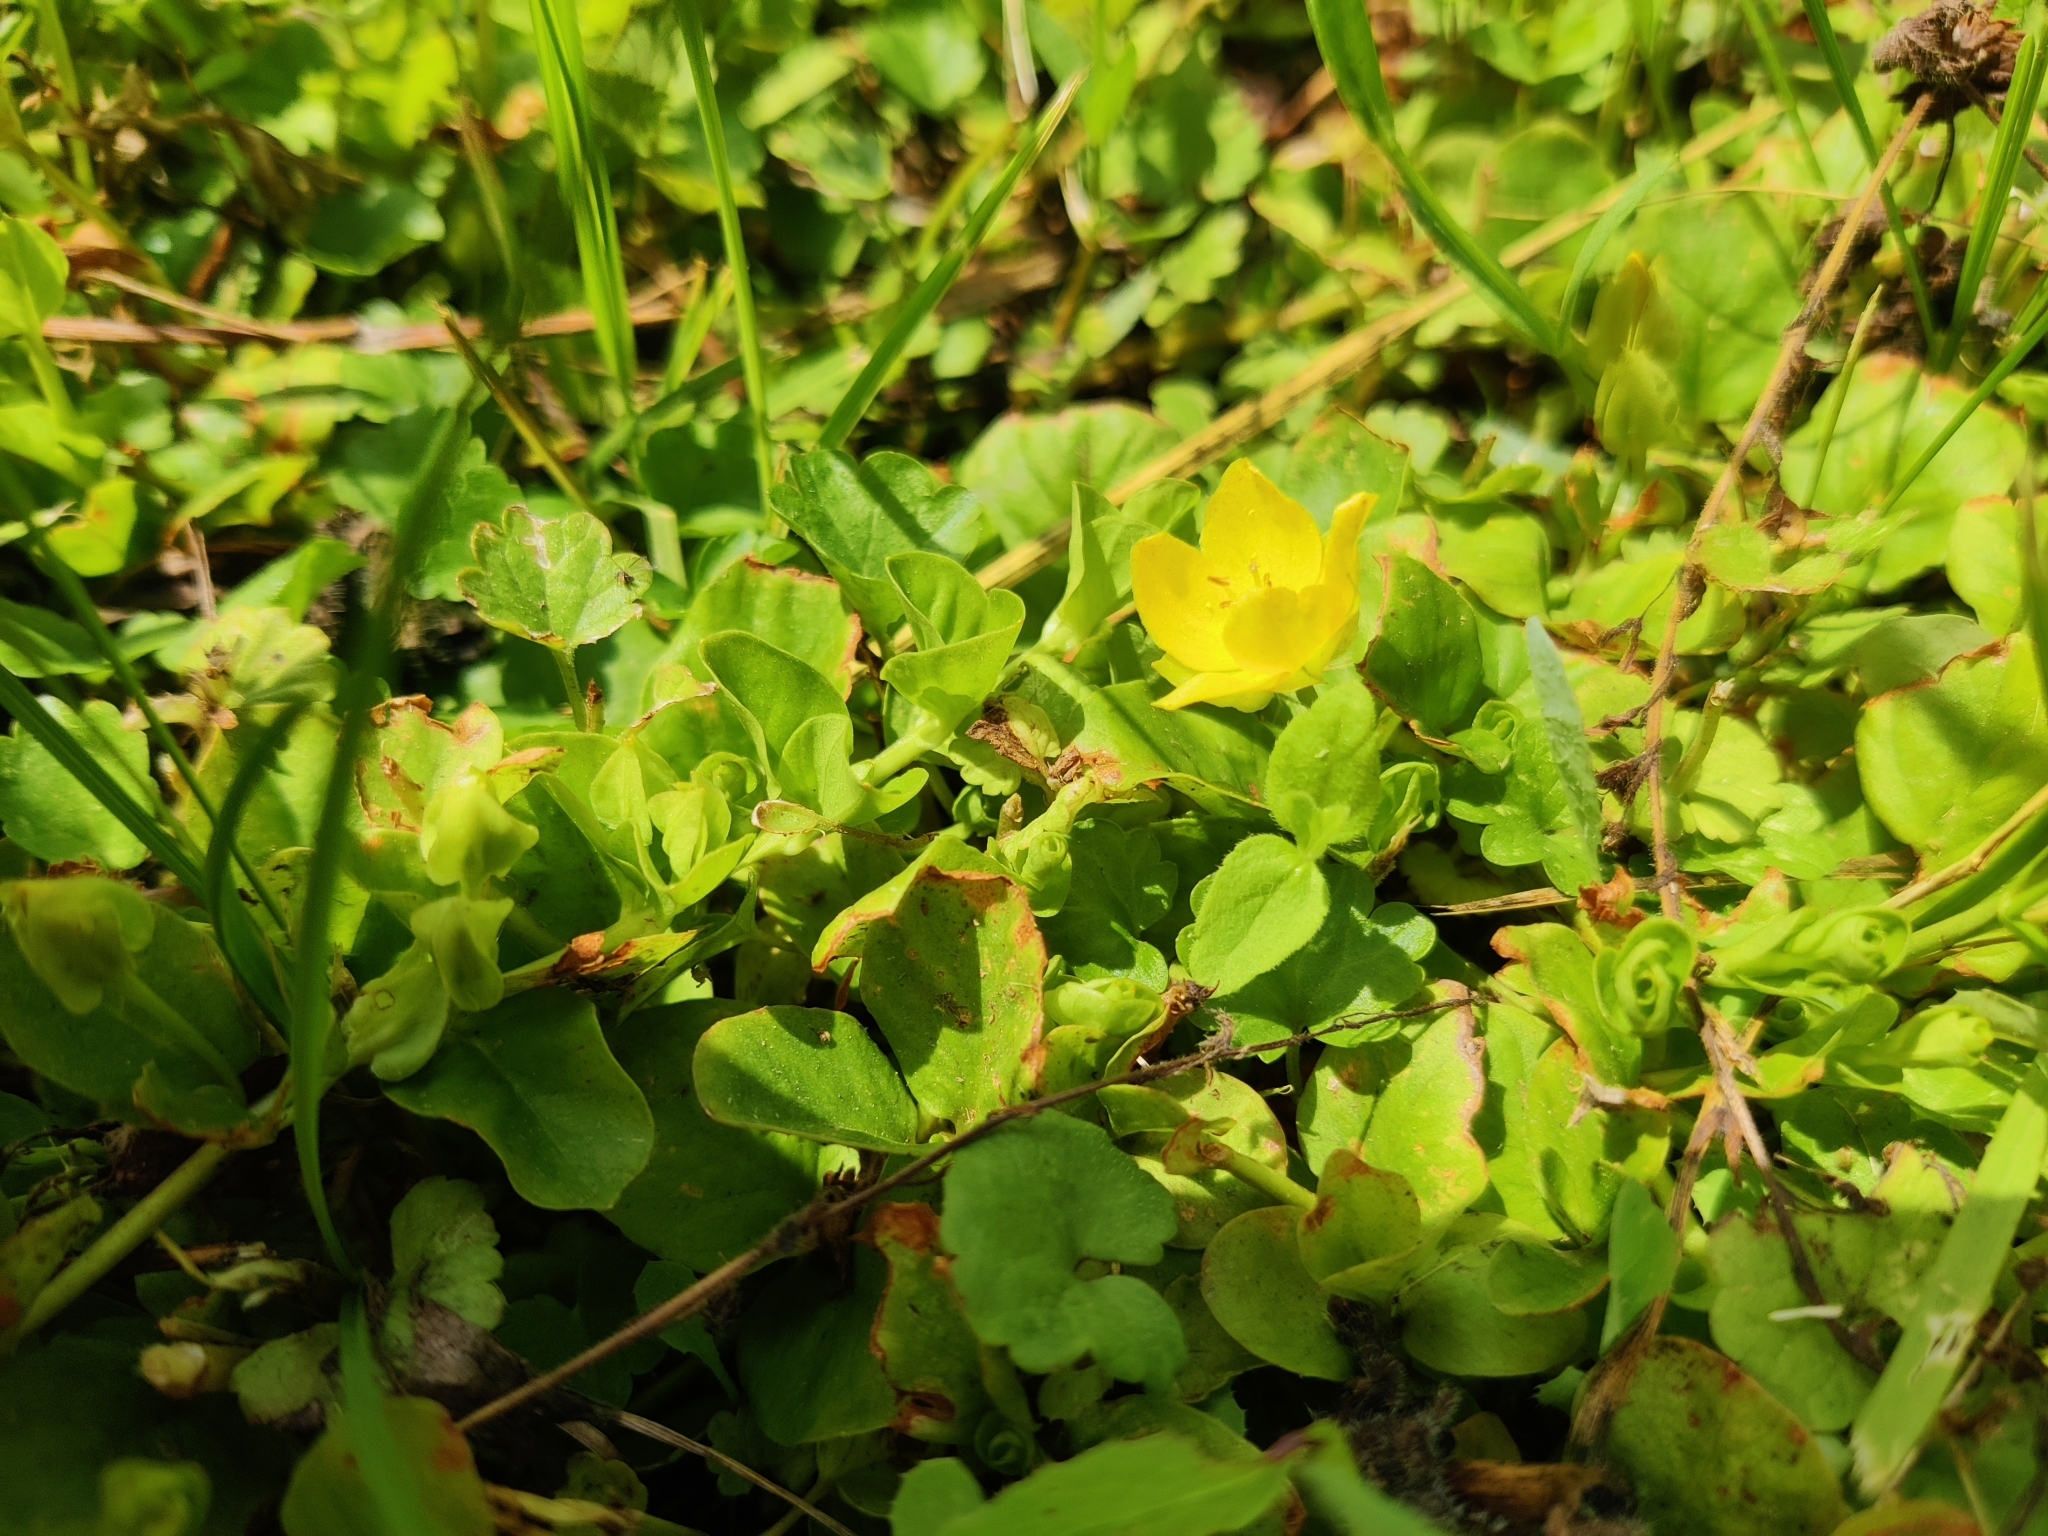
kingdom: Plantae
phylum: Tracheophyta
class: Magnoliopsida
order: Ericales
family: Primulaceae
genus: Lysimachia
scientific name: Lysimachia nummularia
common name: Moneywort
